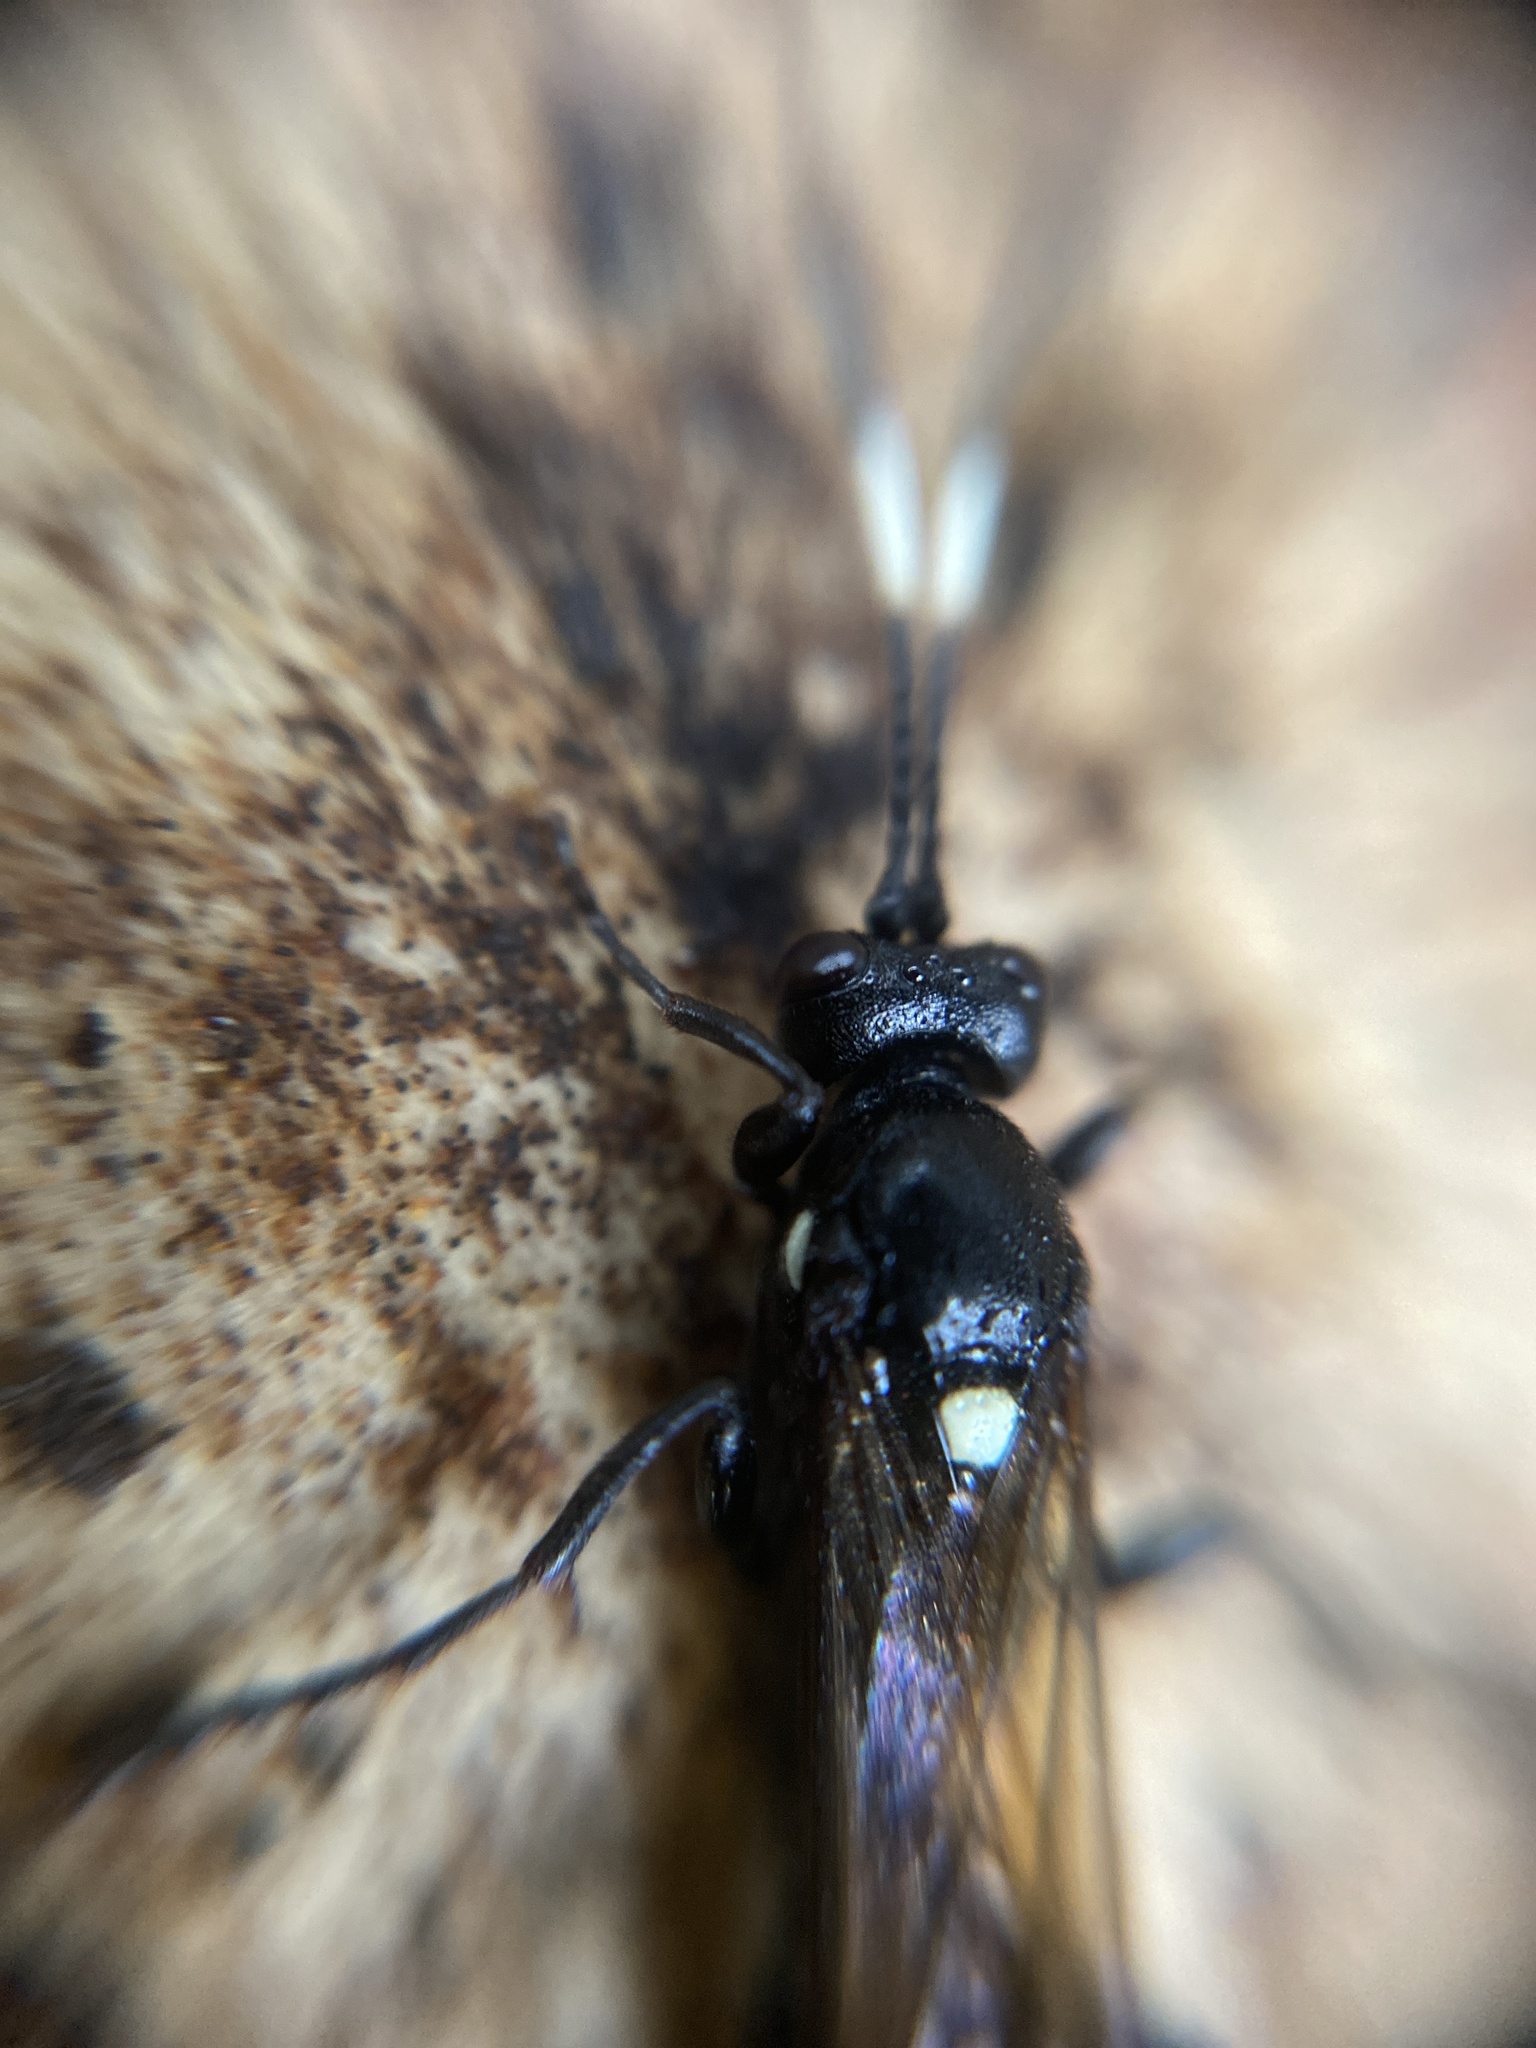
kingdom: Animalia
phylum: Arthropoda
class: Insecta
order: Hymenoptera
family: Ichneumonidae
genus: Ichneumon
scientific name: Ichneumon lugens
